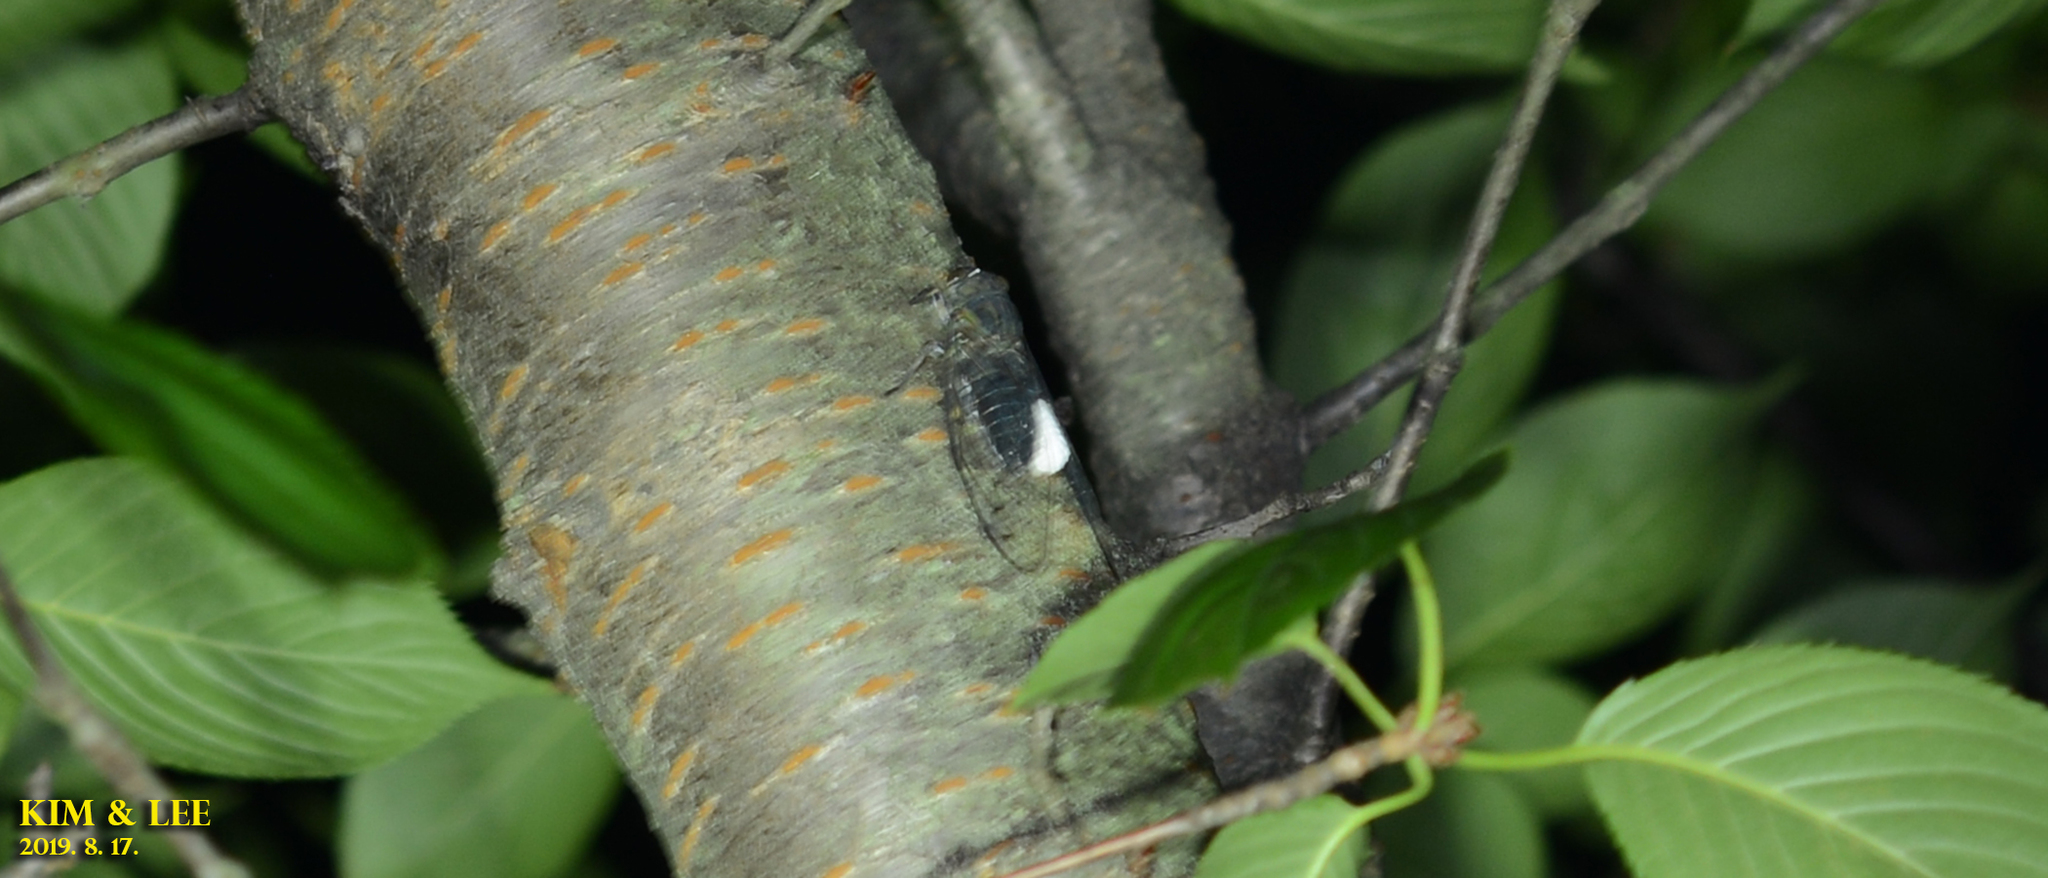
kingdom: Animalia
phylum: Arthropoda
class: Insecta
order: Hemiptera
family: Cicadidae
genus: Meimuna
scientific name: Meimuna opalifera
